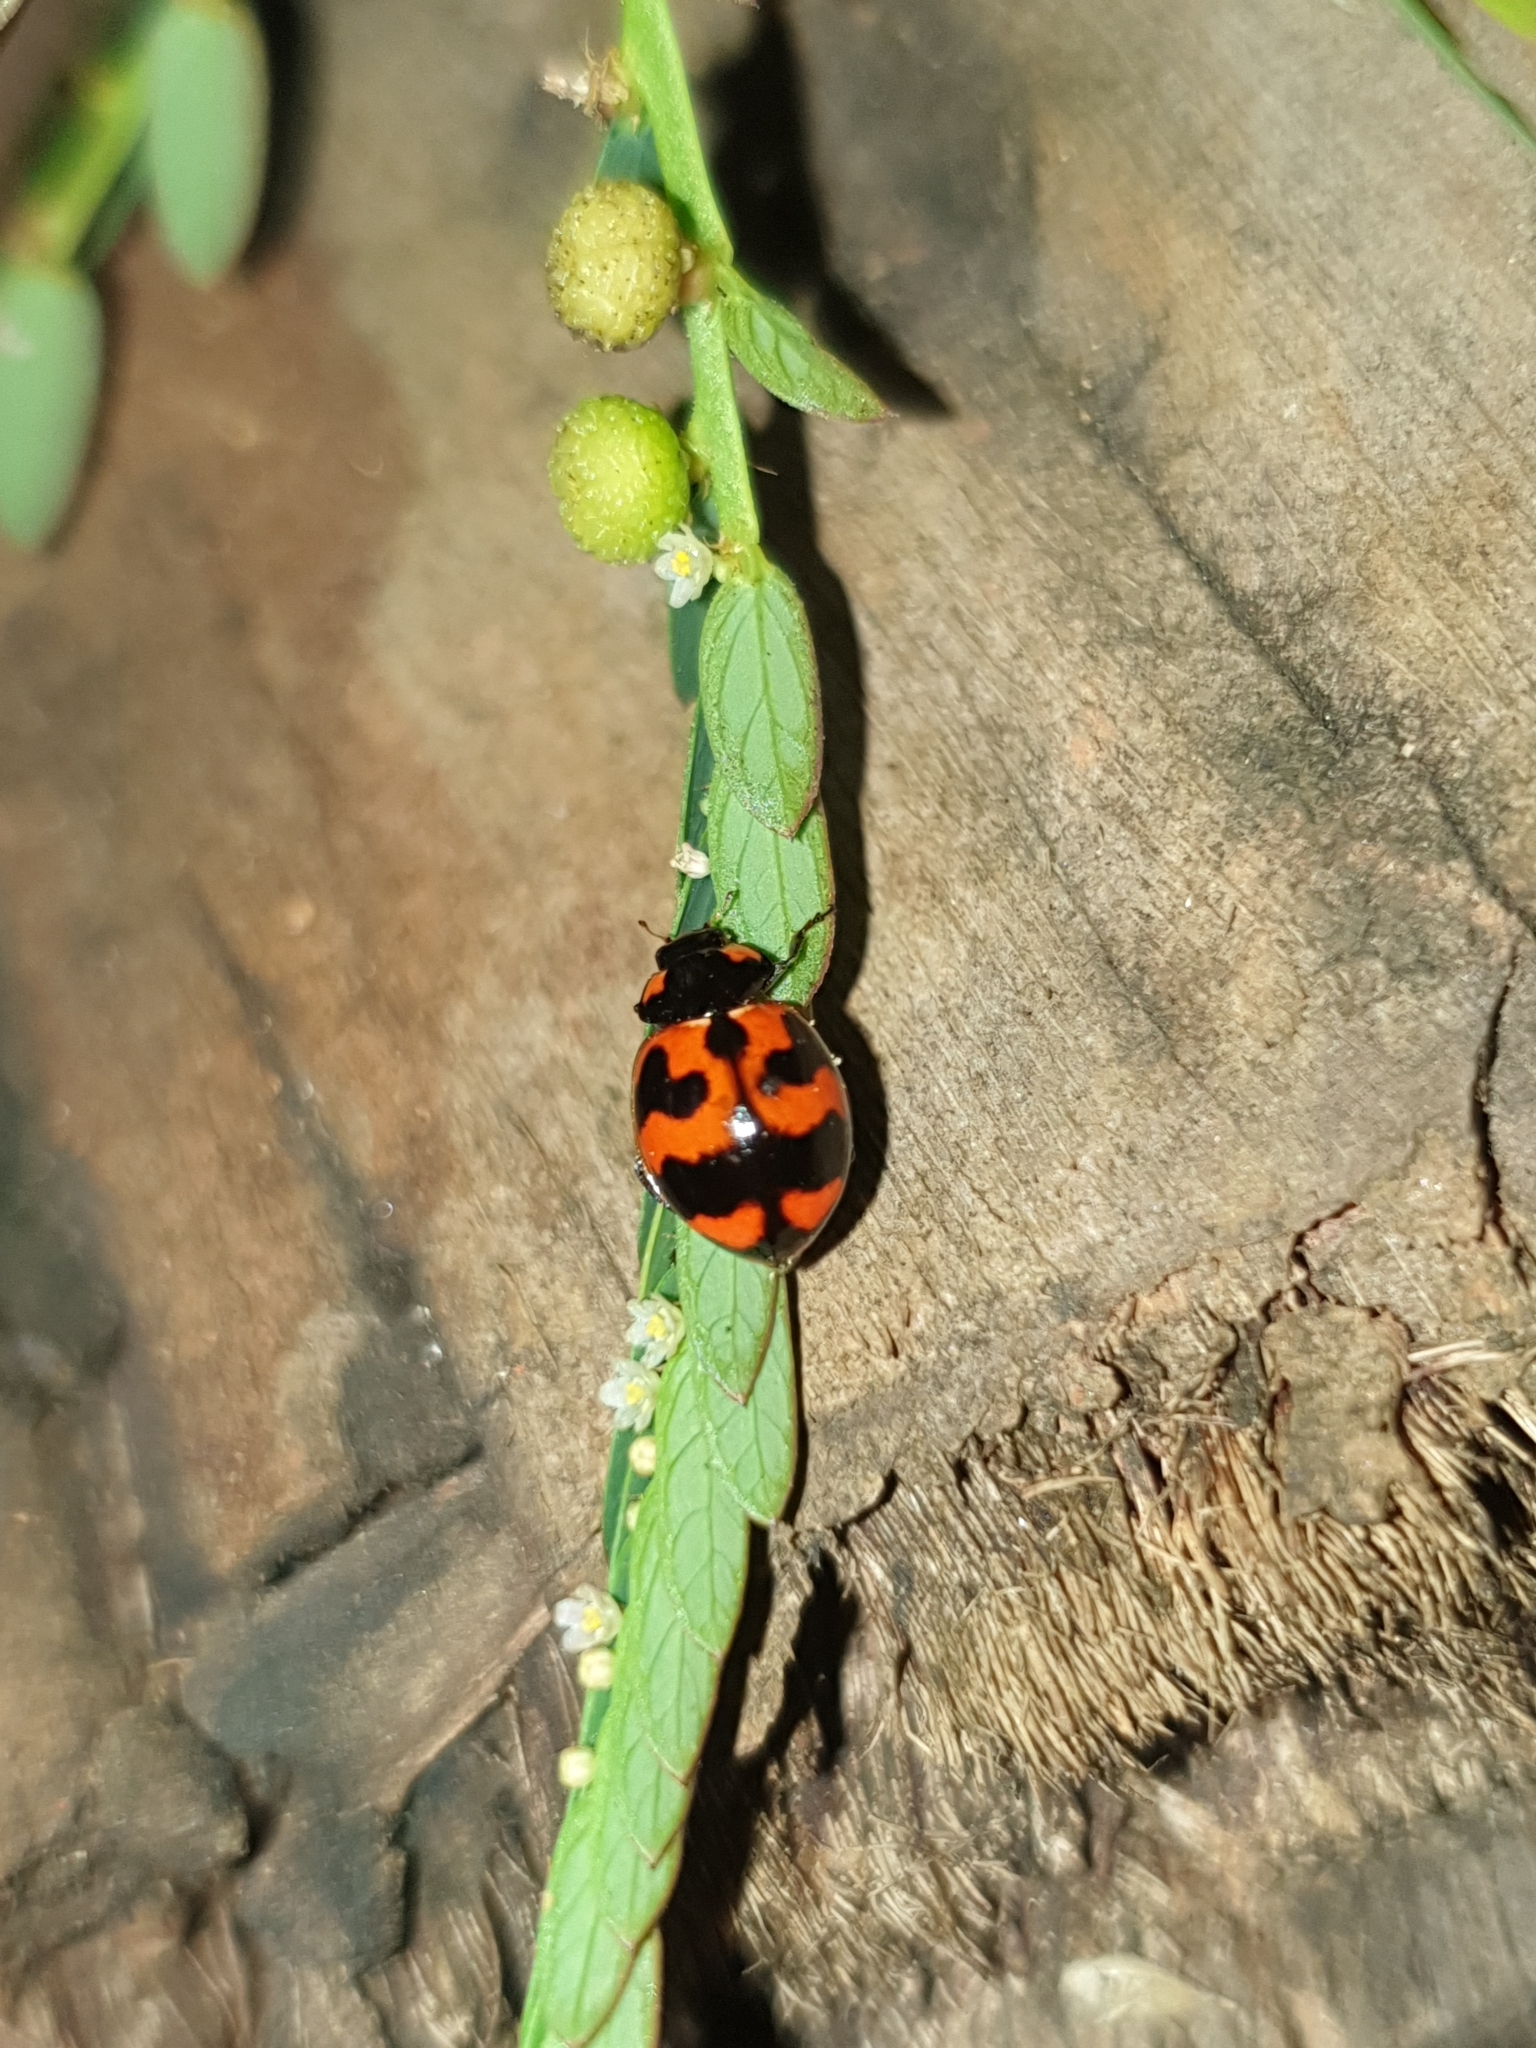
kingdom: Animalia
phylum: Arthropoda
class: Insecta
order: Coleoptera
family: Coccinellidae
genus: Coccinella
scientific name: Coccinella transversalis
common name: Transverse lady beetle
